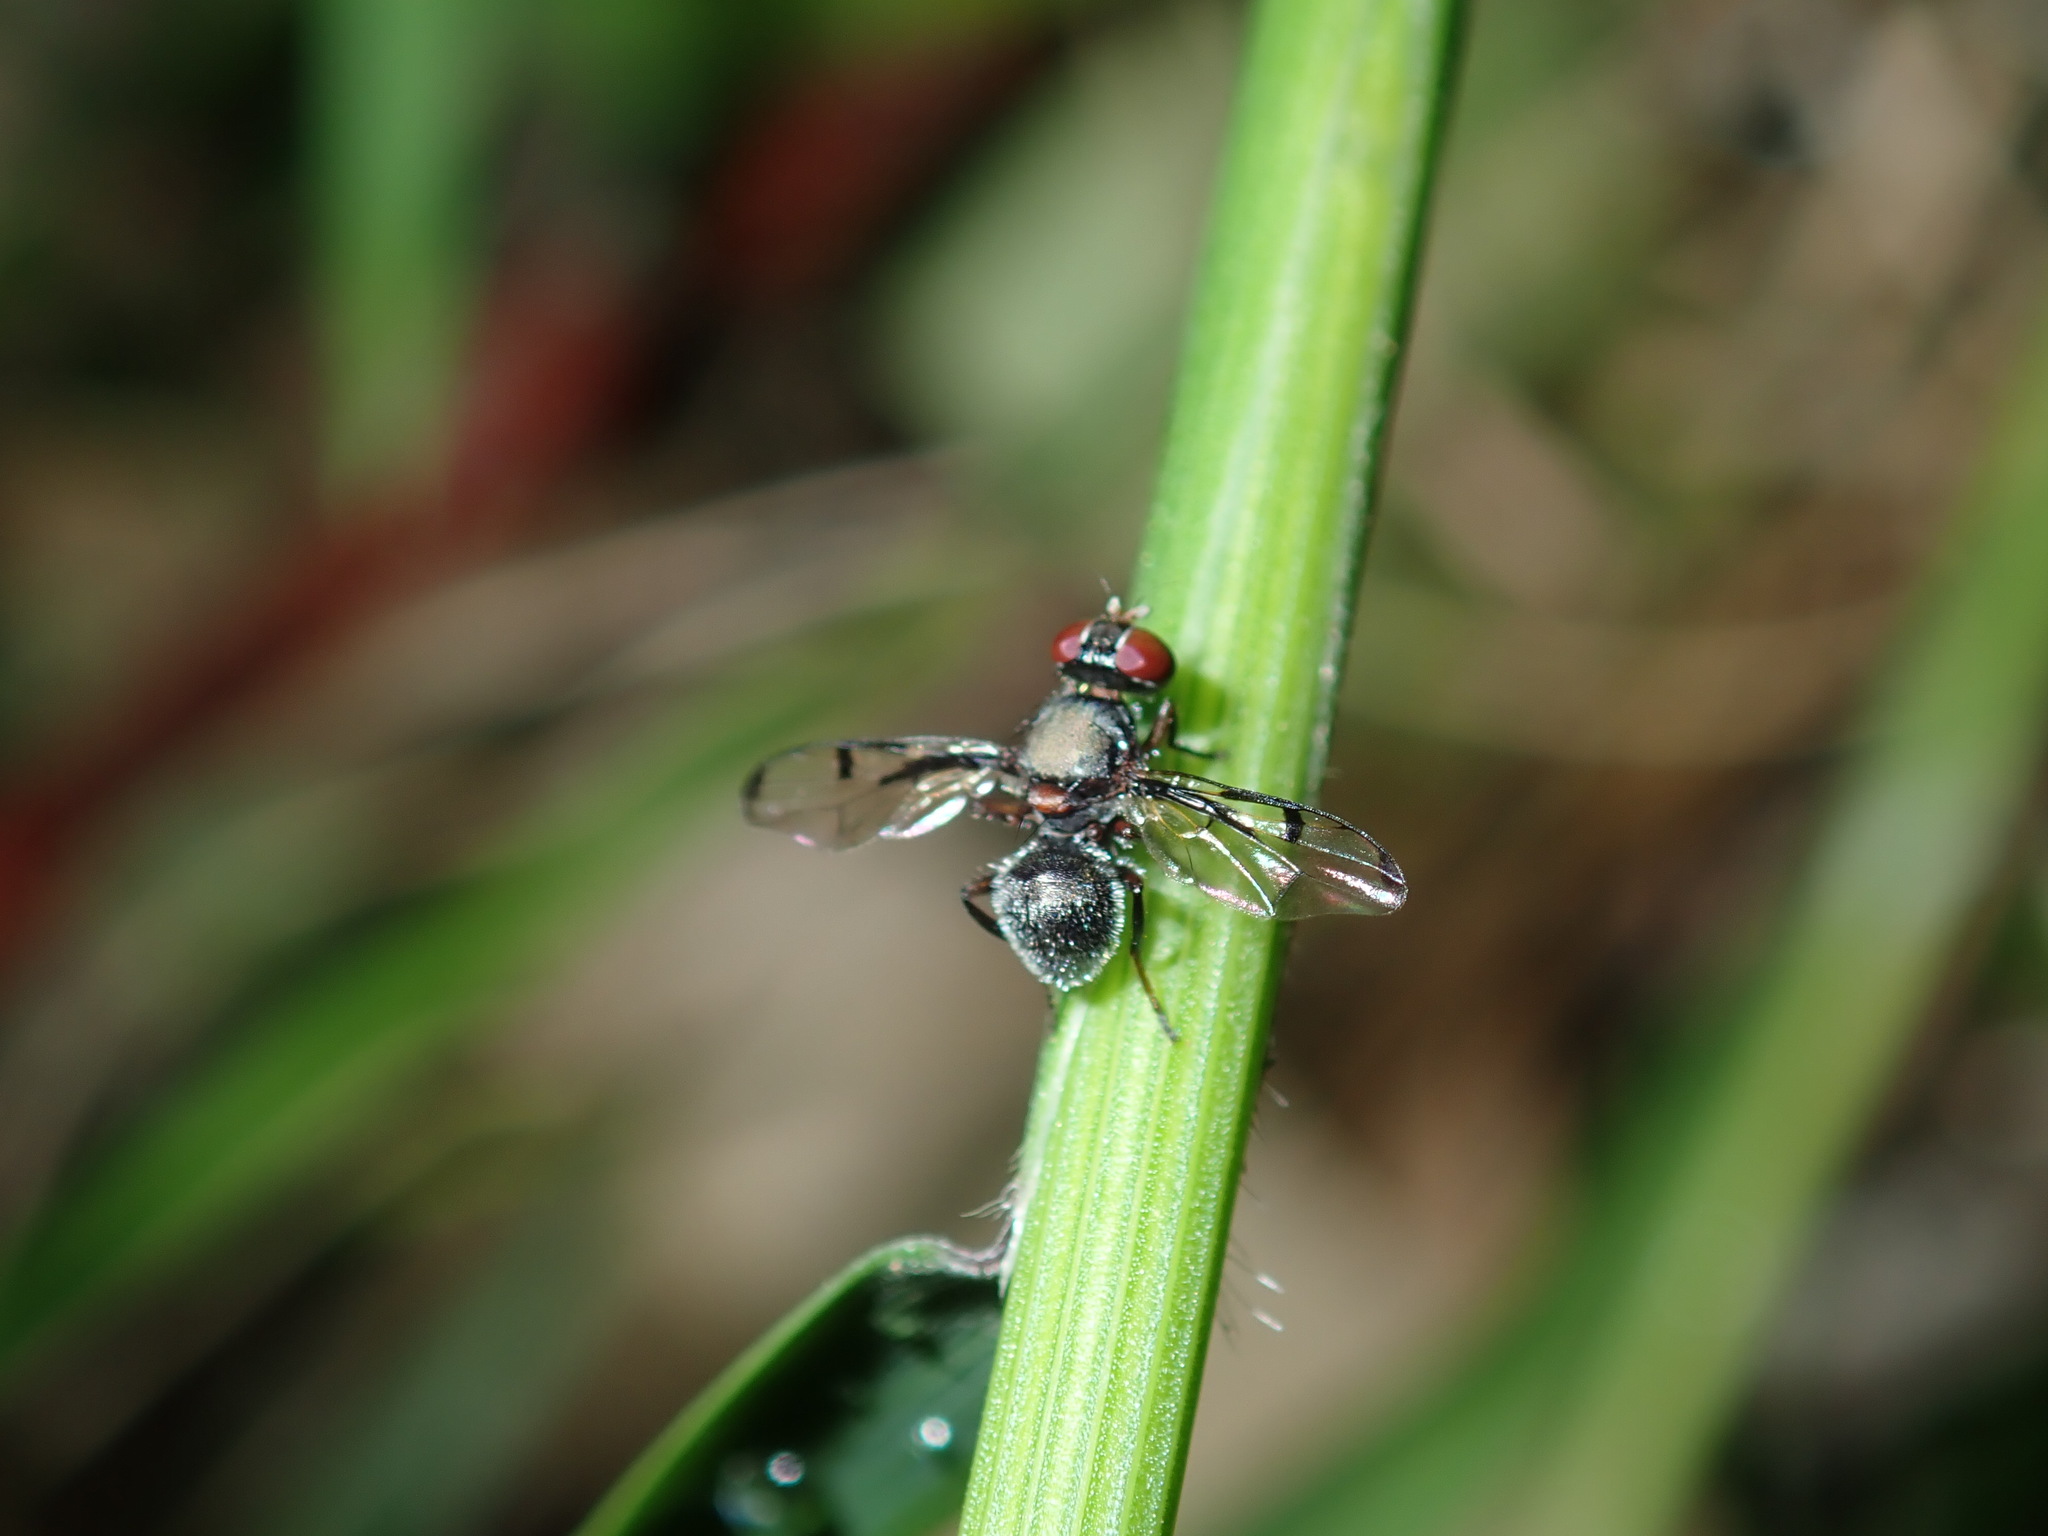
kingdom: Animalia
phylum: Arthropoda
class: Insecta
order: Diptera
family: Platystomatidae
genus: Pogonortalis
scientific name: Pogonortalis doclea
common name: Boatman fly
